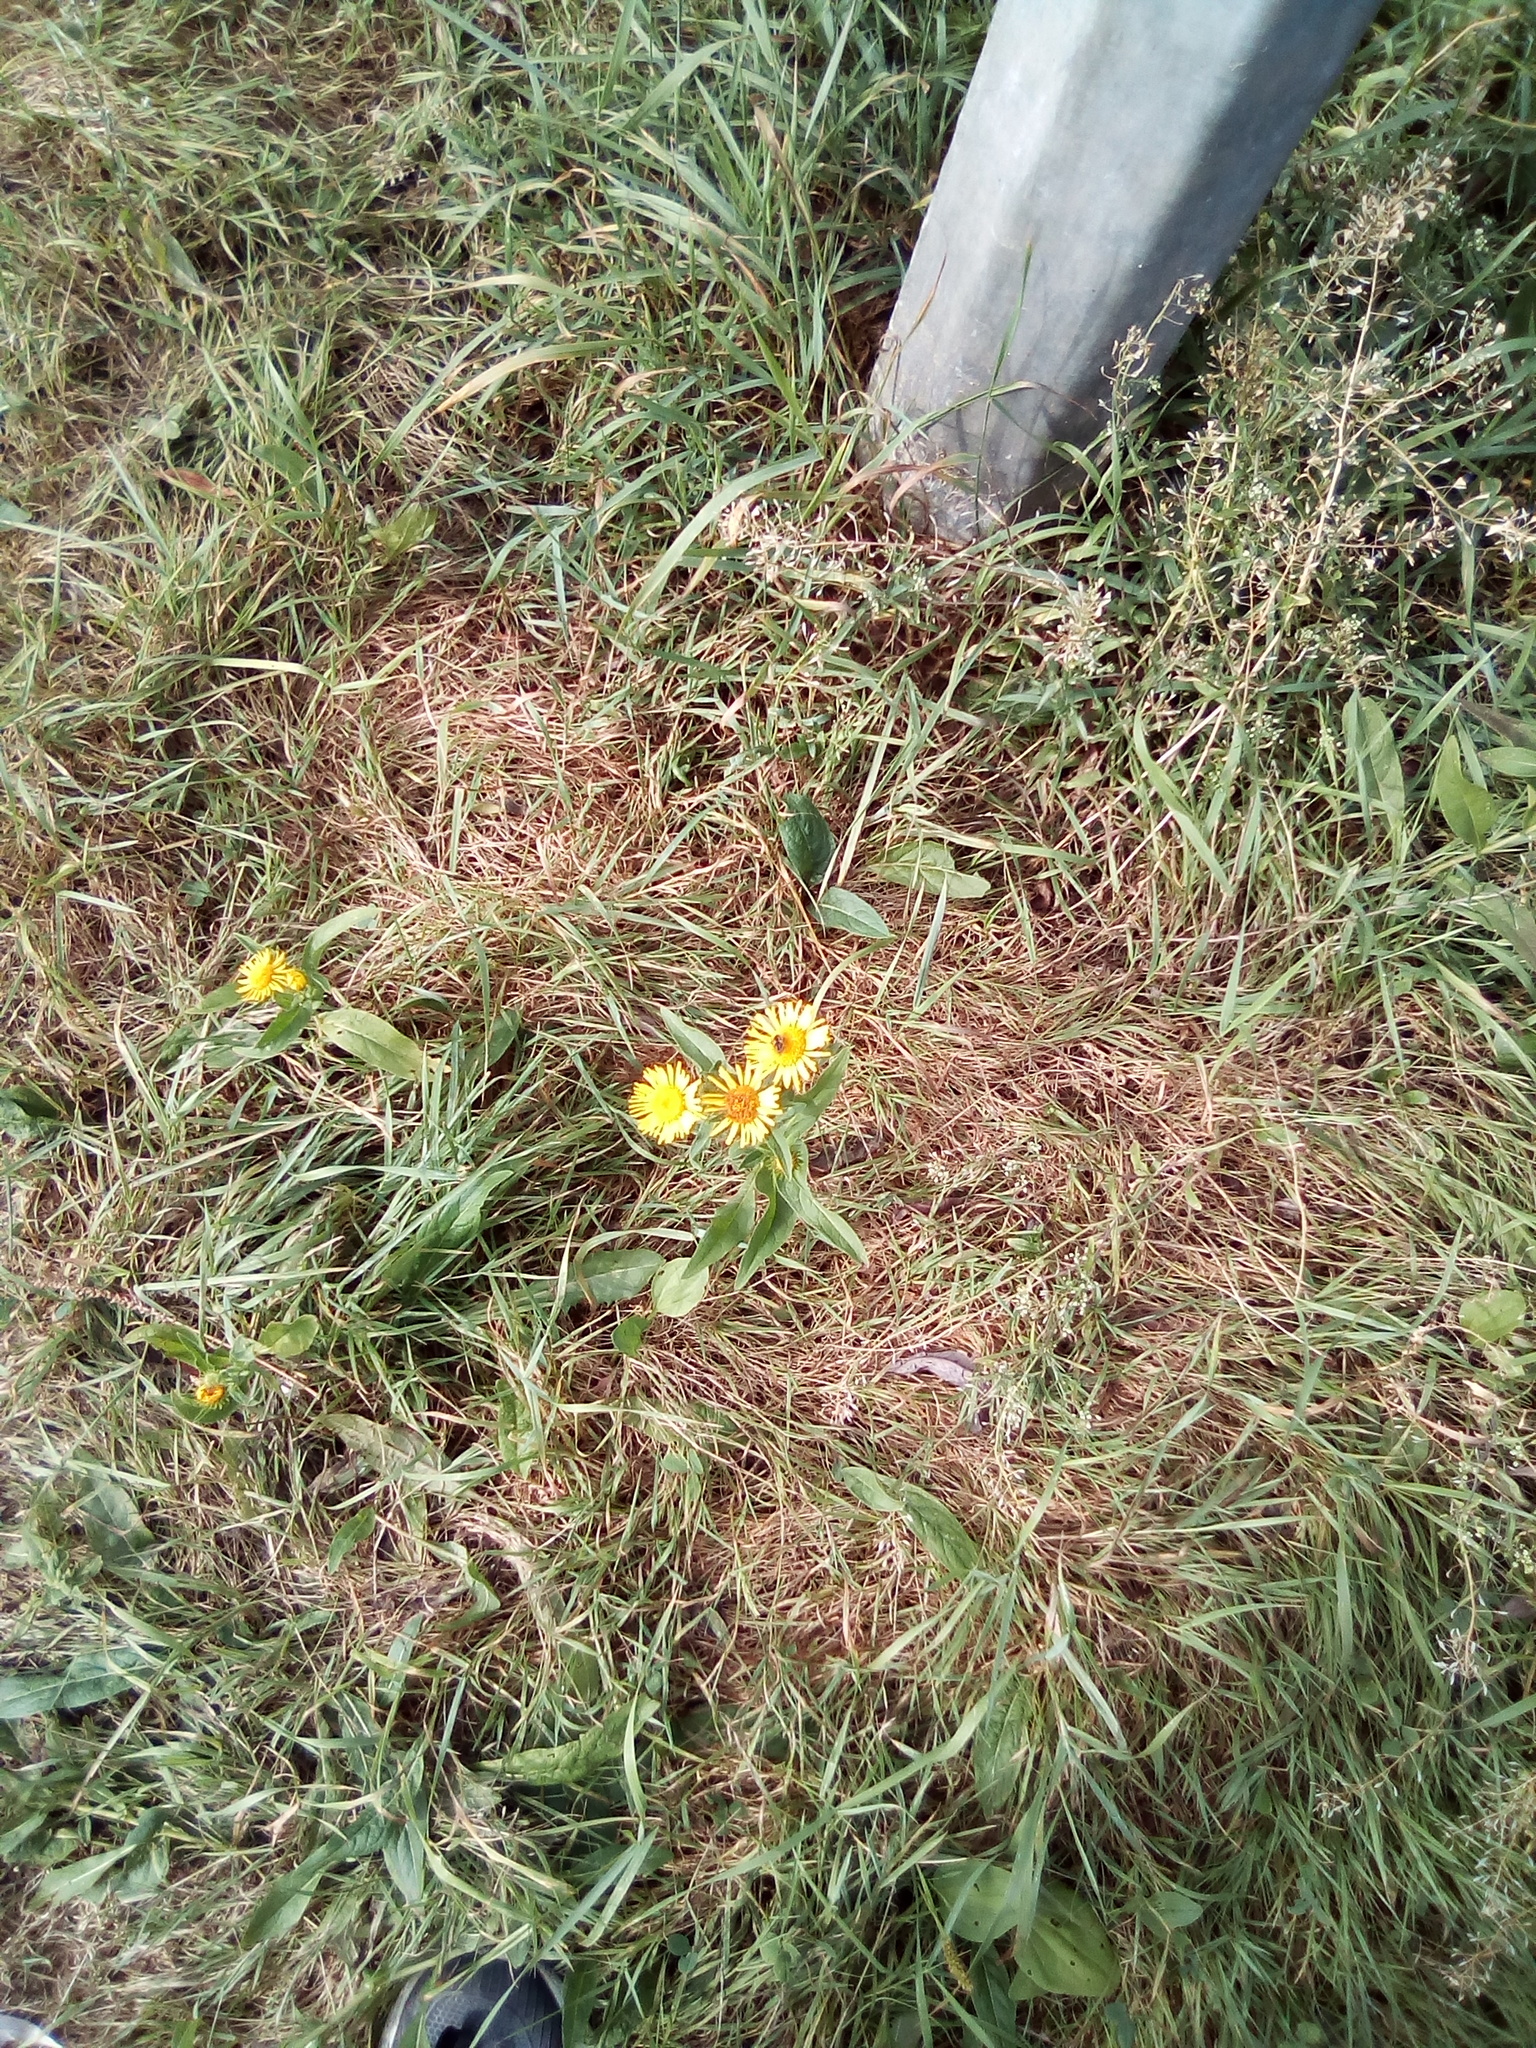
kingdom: Plantae
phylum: Tracheophyta
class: Magnoliopsida
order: Asterales
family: Asteraceae
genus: Pentanema
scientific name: Pentanema britannicum
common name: British elecampane
